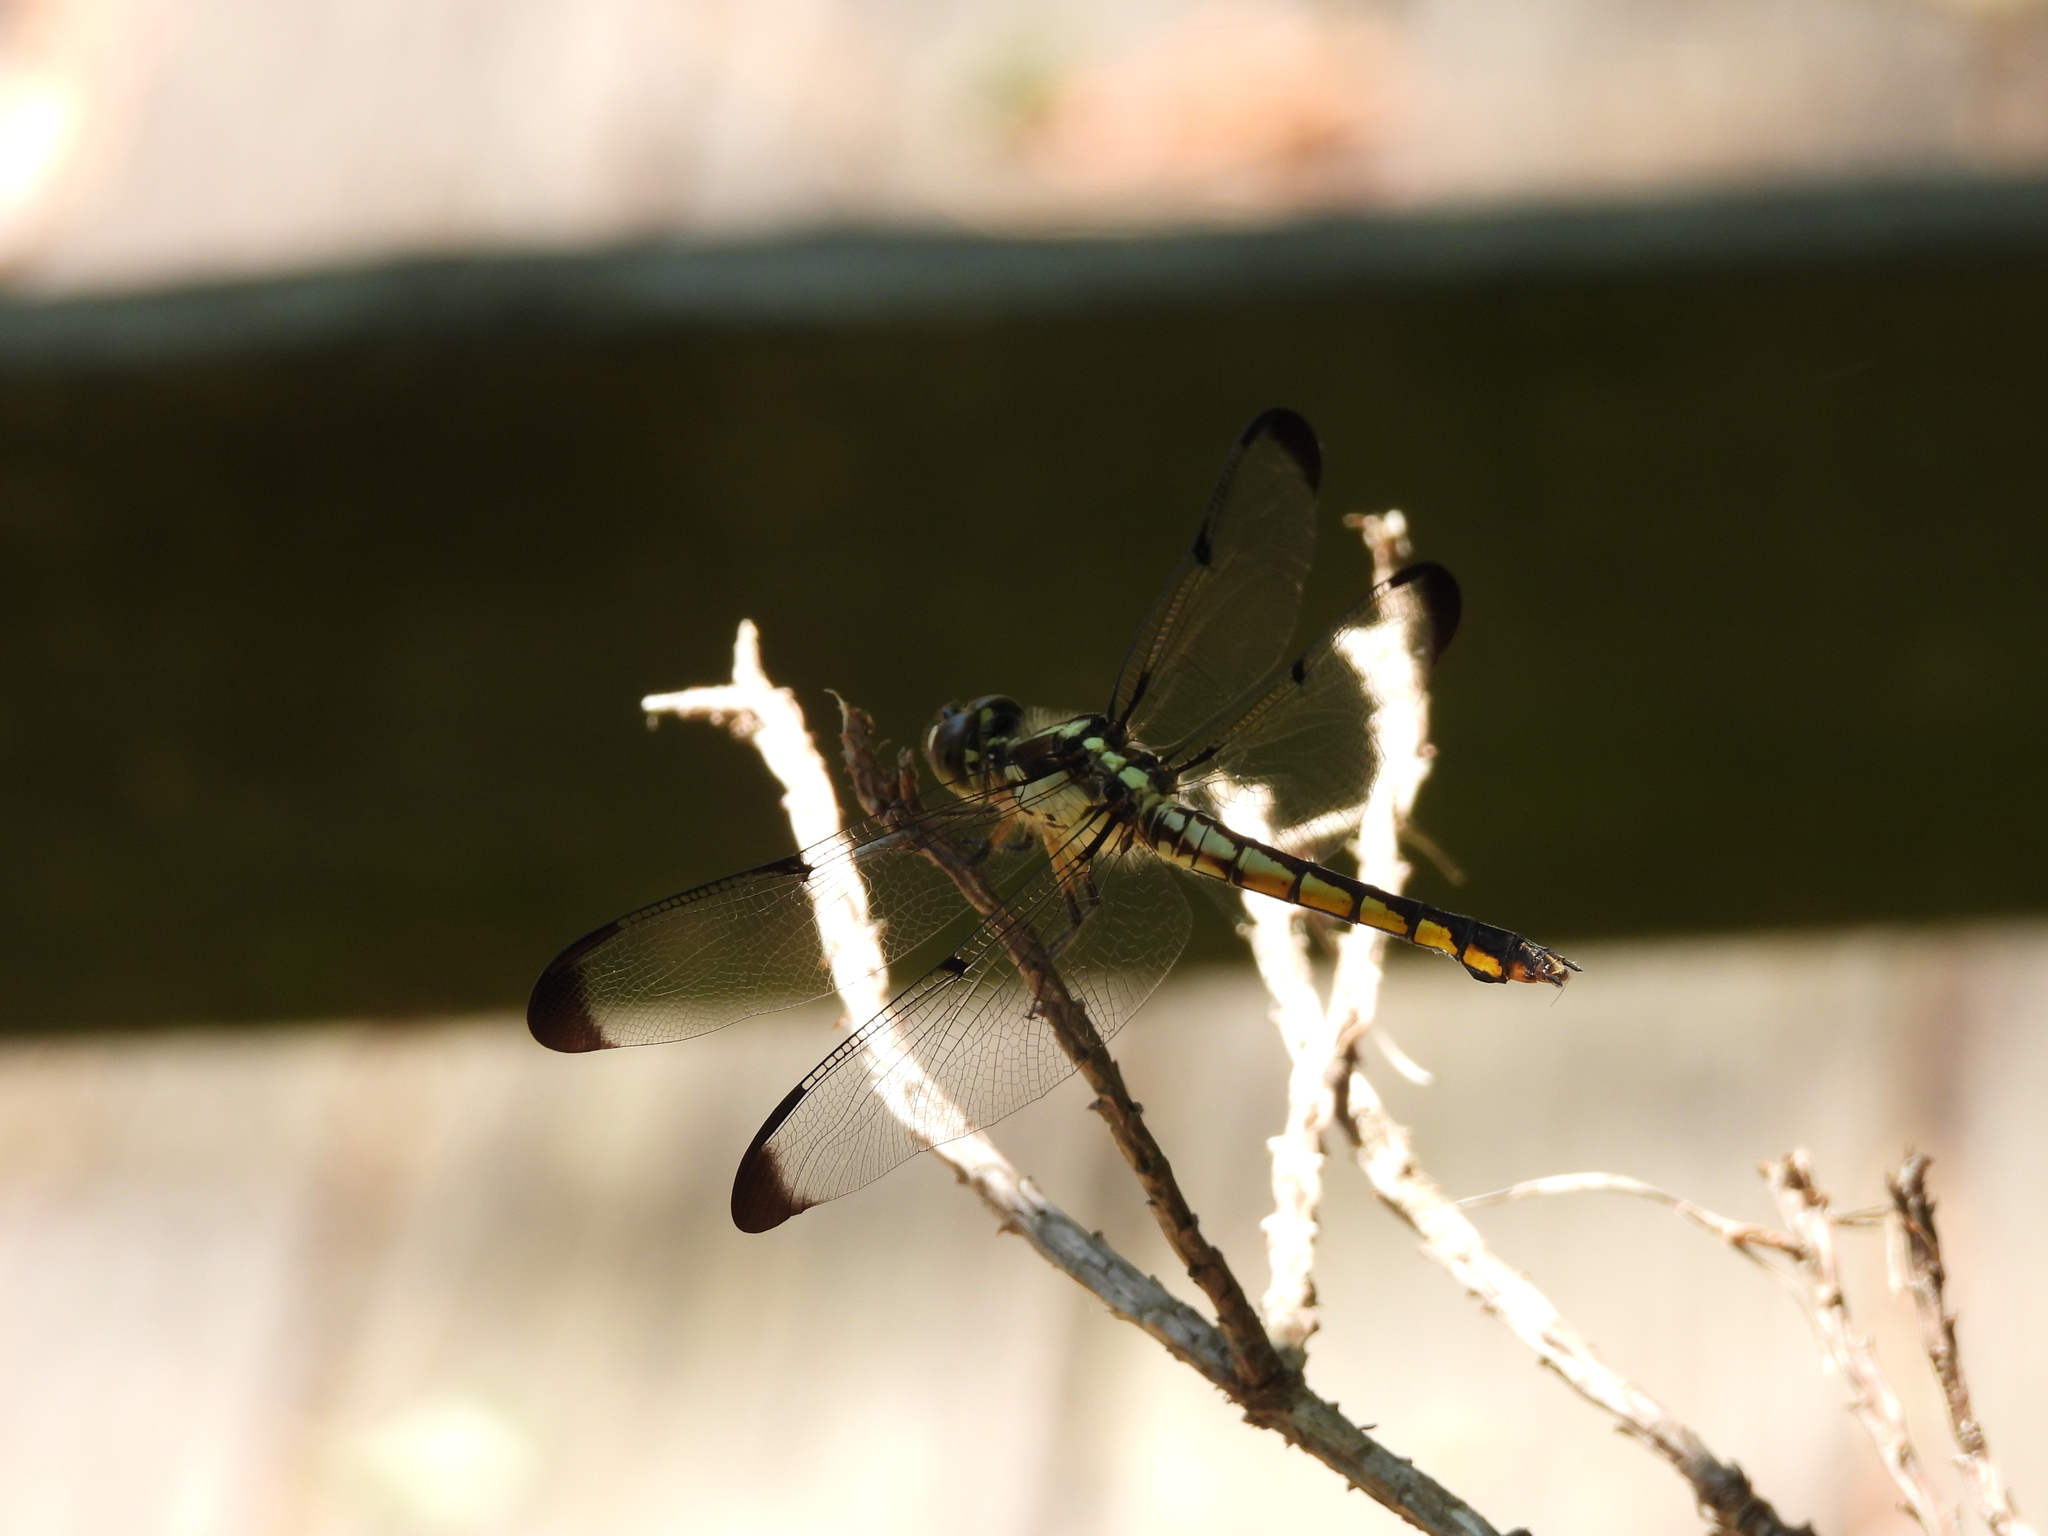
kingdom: Animalia
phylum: Arthropoda
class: Insecta
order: Odonata
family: Libellulidae
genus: Libellula
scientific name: Libellula vibrans
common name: Great blue skimmer
